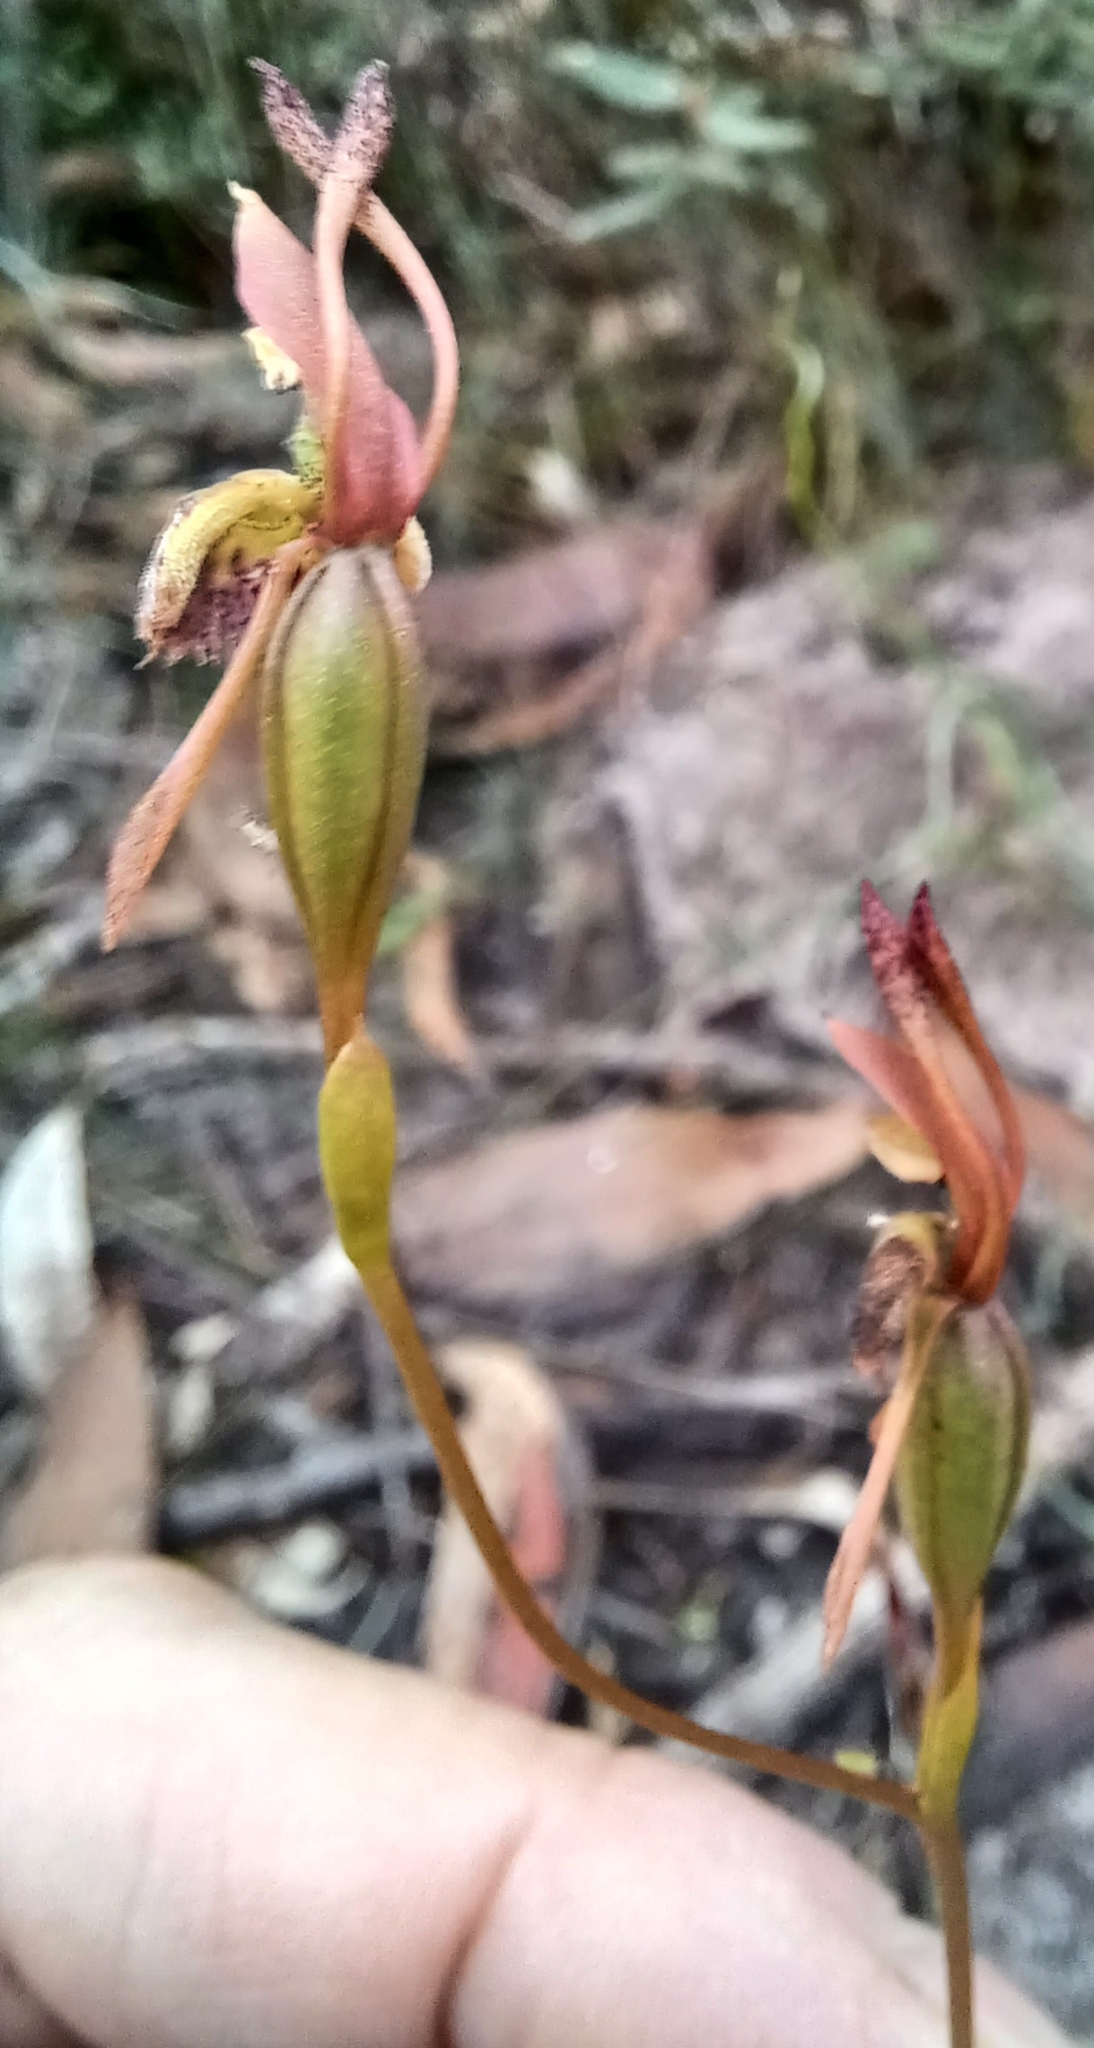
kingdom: Plantae
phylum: Tracheophyta
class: Liliopsida
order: Asparagales
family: Orchidaceae
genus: Leporella
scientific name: Leporella fimbriata
